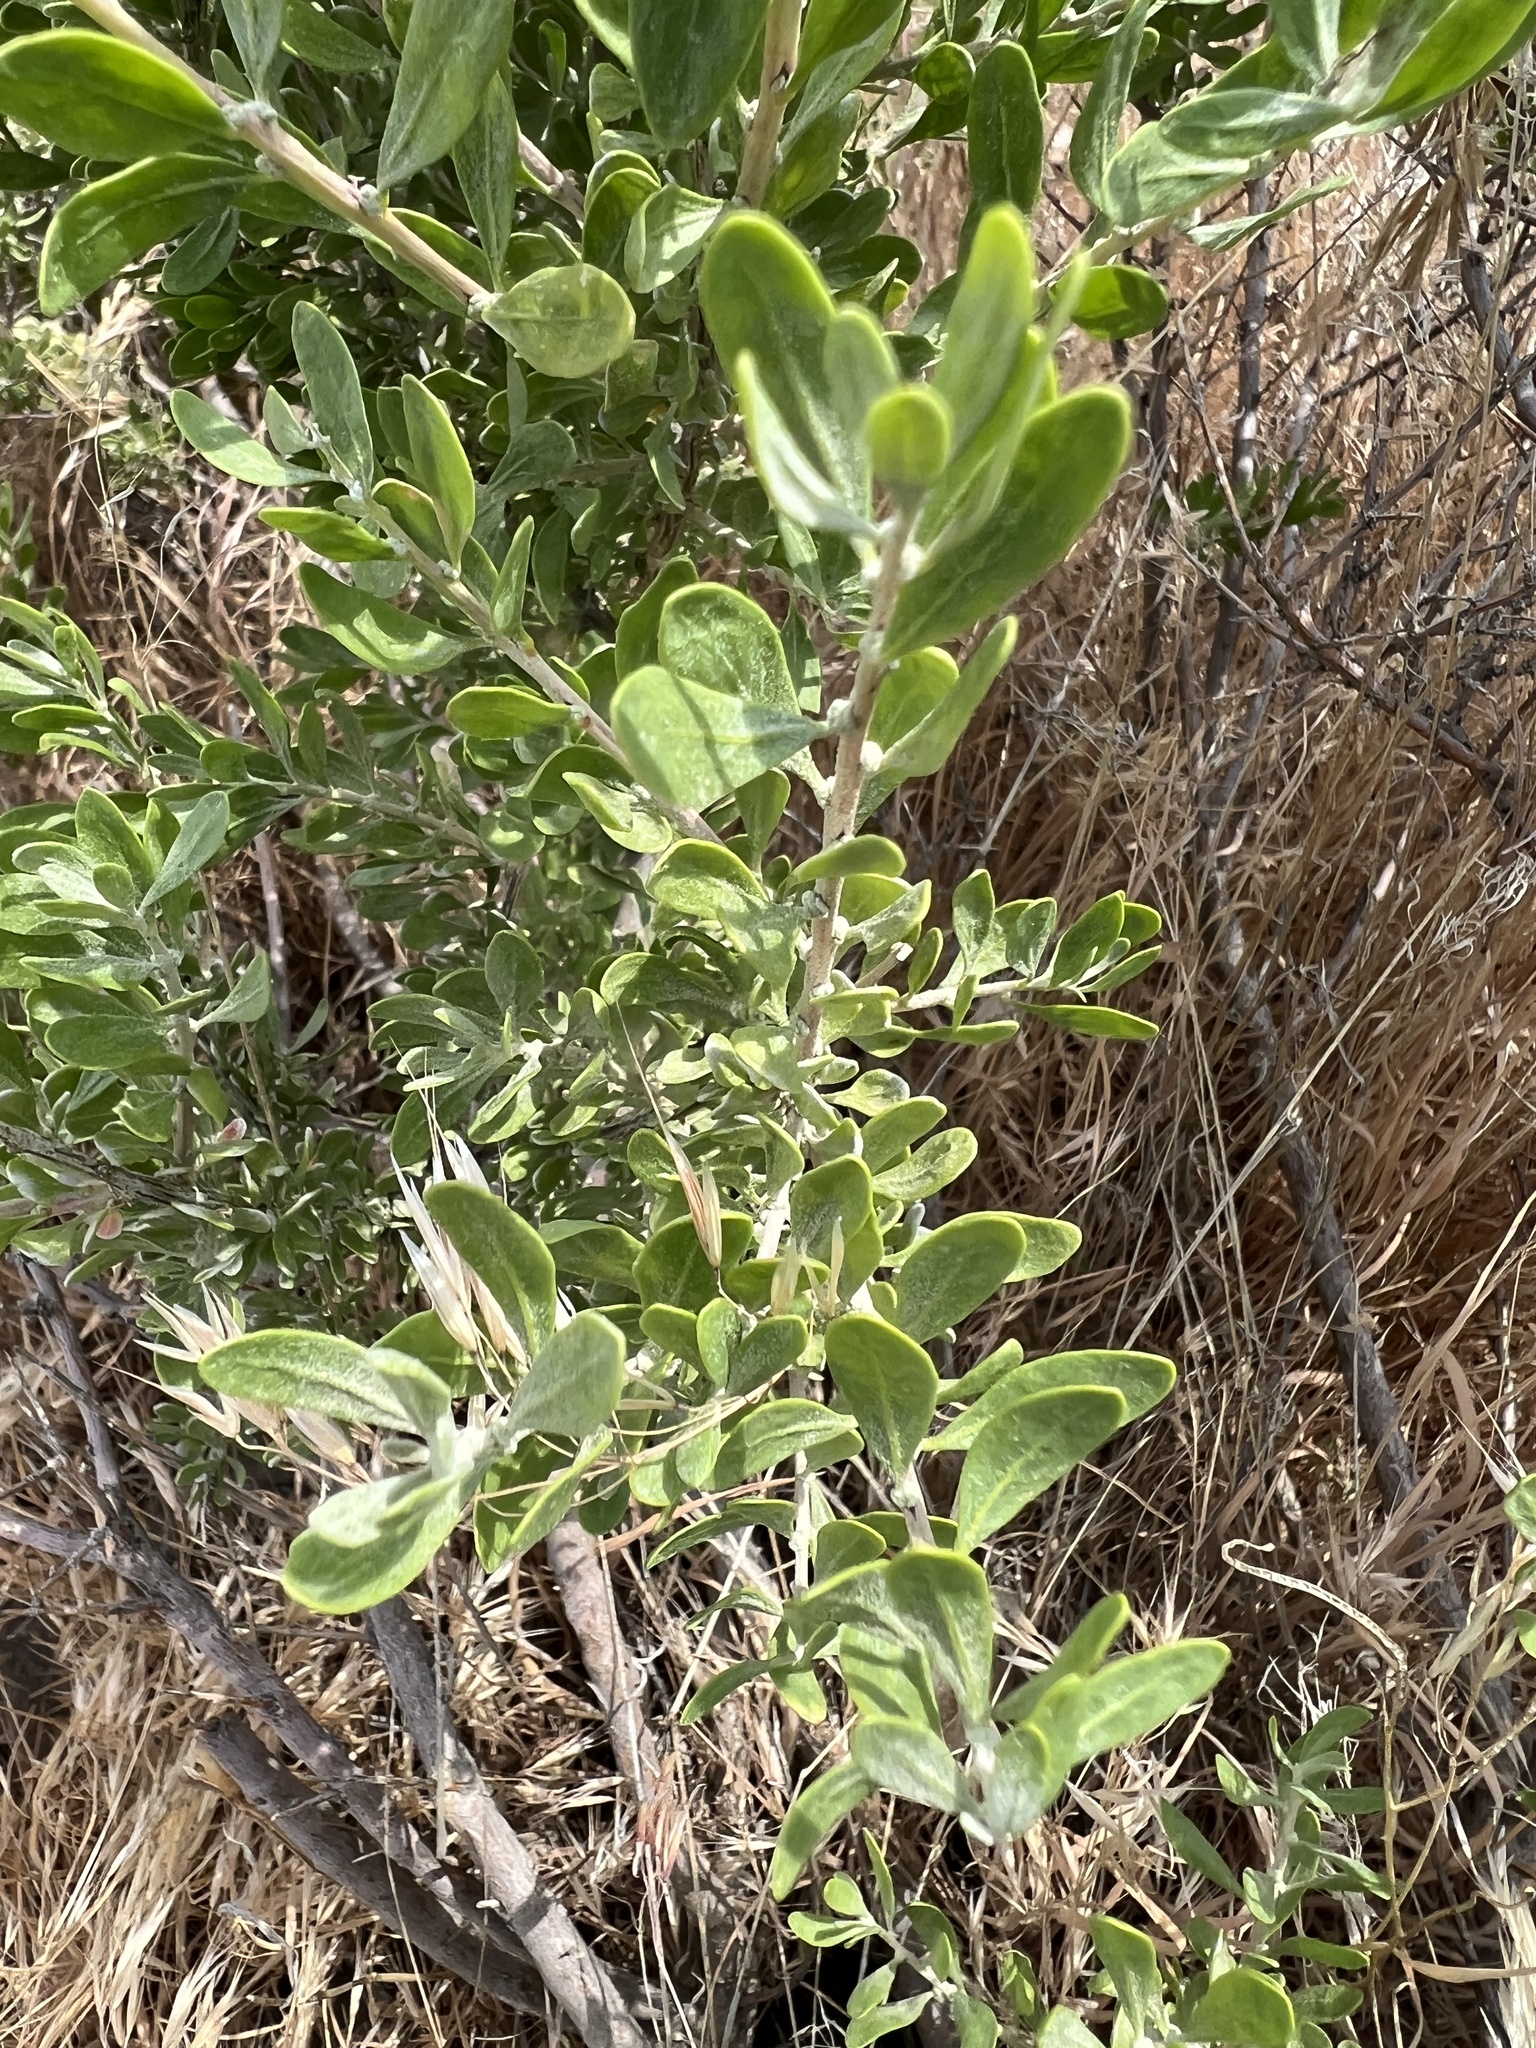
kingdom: Plantae
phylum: Tracheophyta
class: Magnoliopsida
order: Caryophyllales
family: Amaranthaceae
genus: Grayia
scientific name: Grayia spinosa
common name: Spiny hopsage
